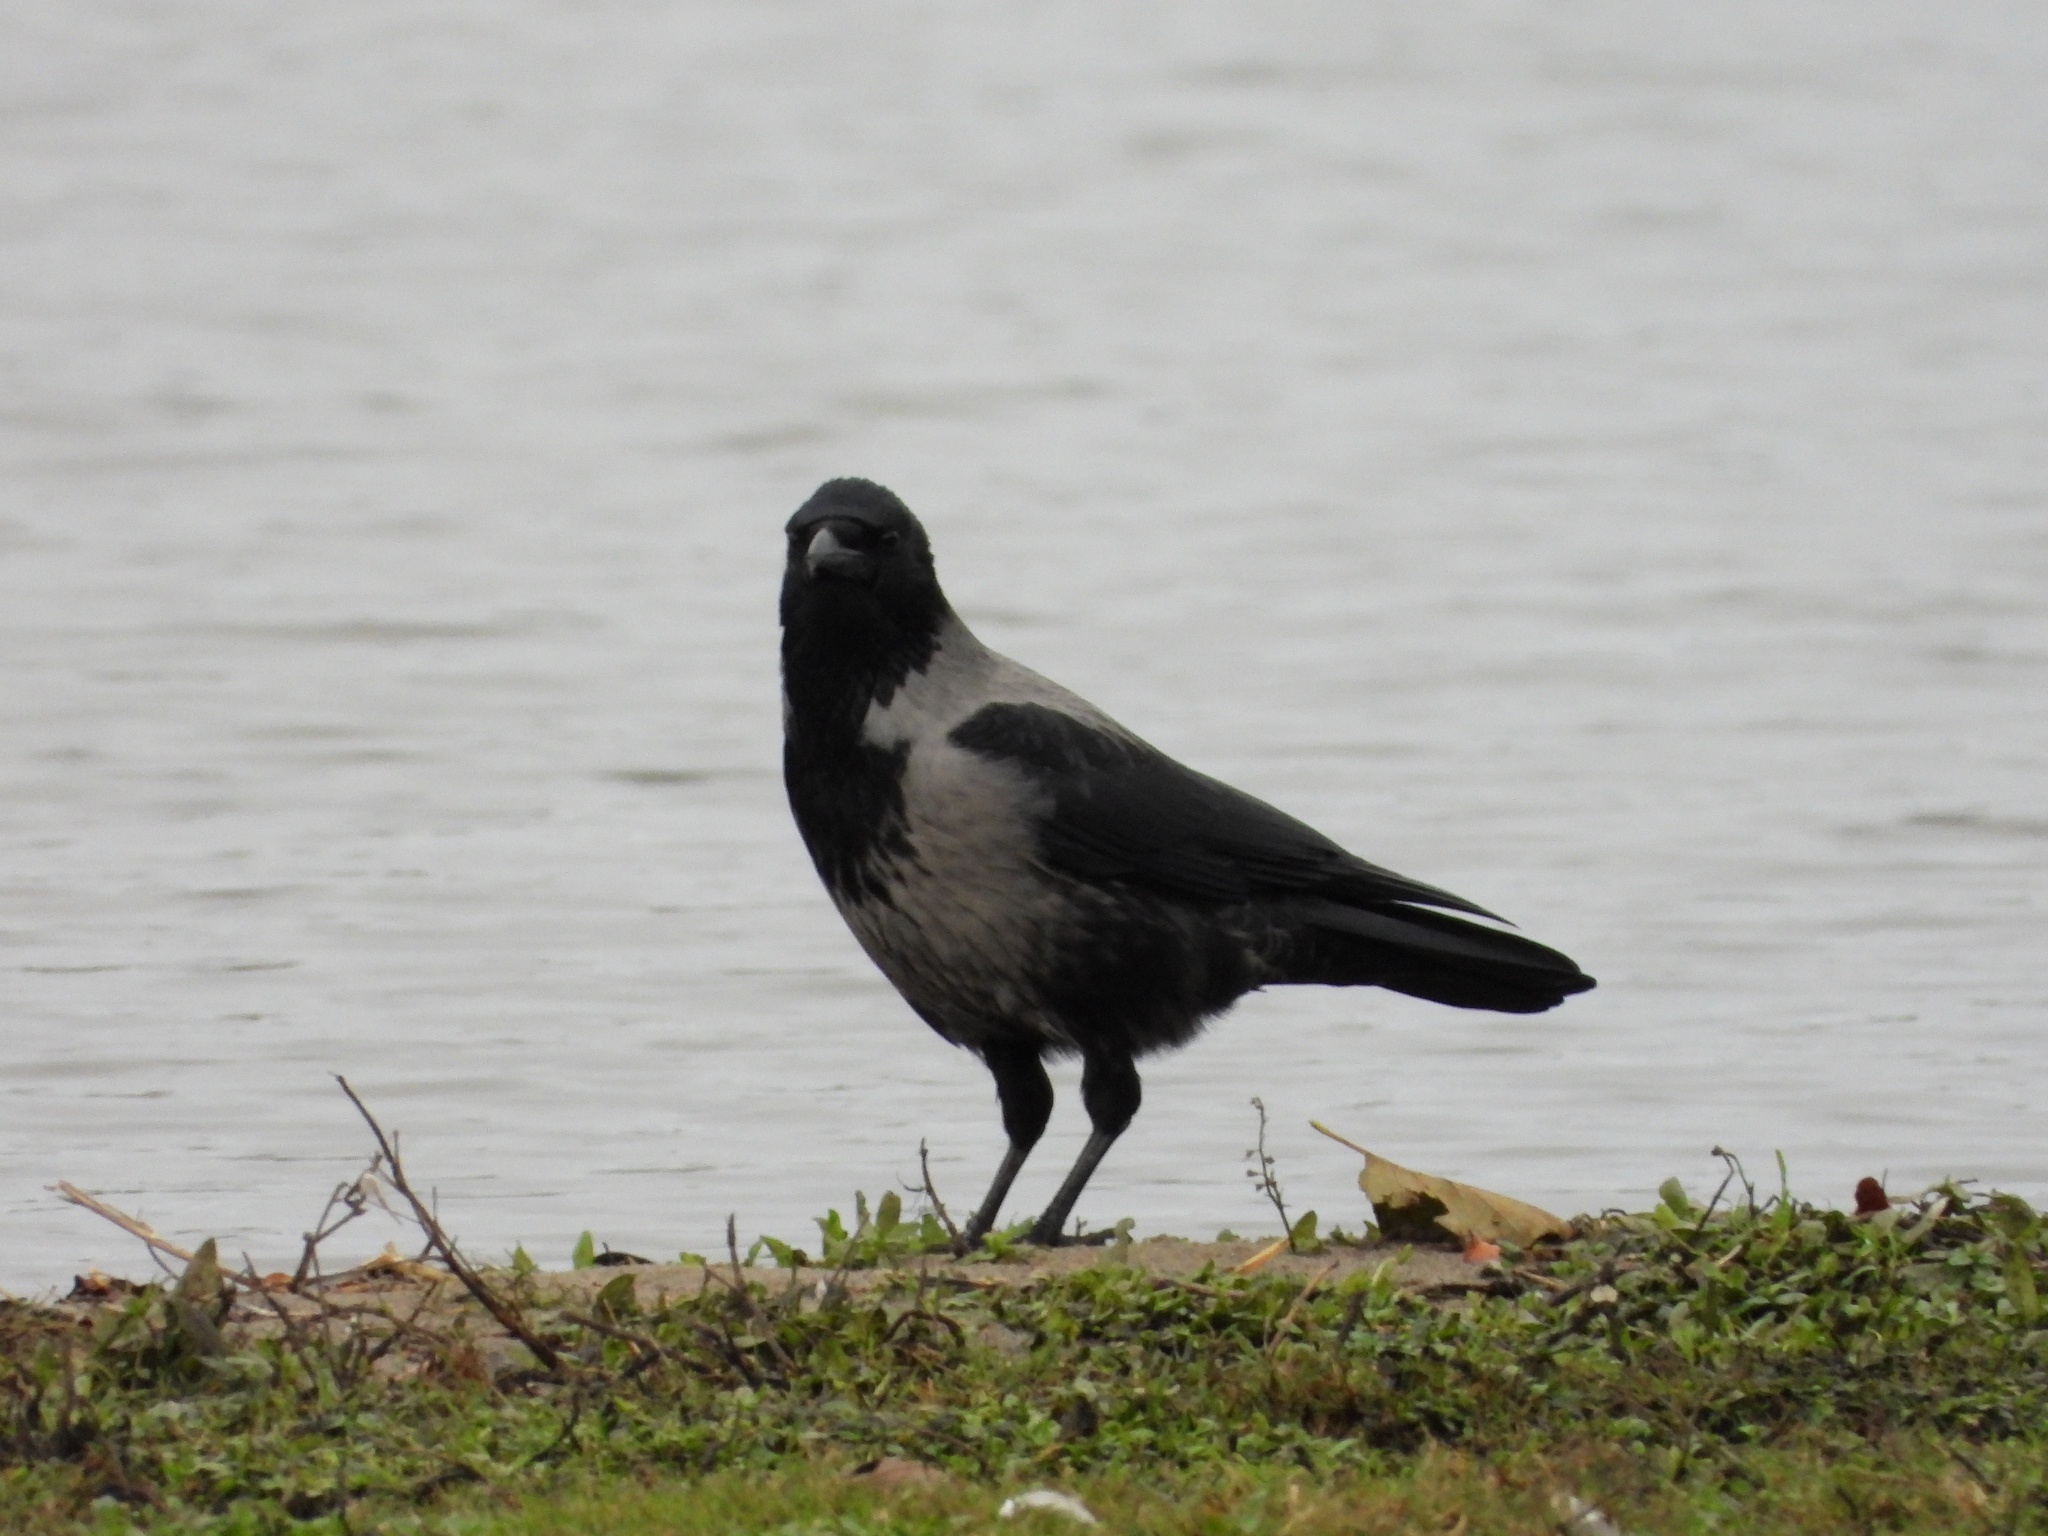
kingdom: Animalia
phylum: Chordata
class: Aves
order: Passeriformes
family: Corvidae
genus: Corvus
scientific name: Corvus
